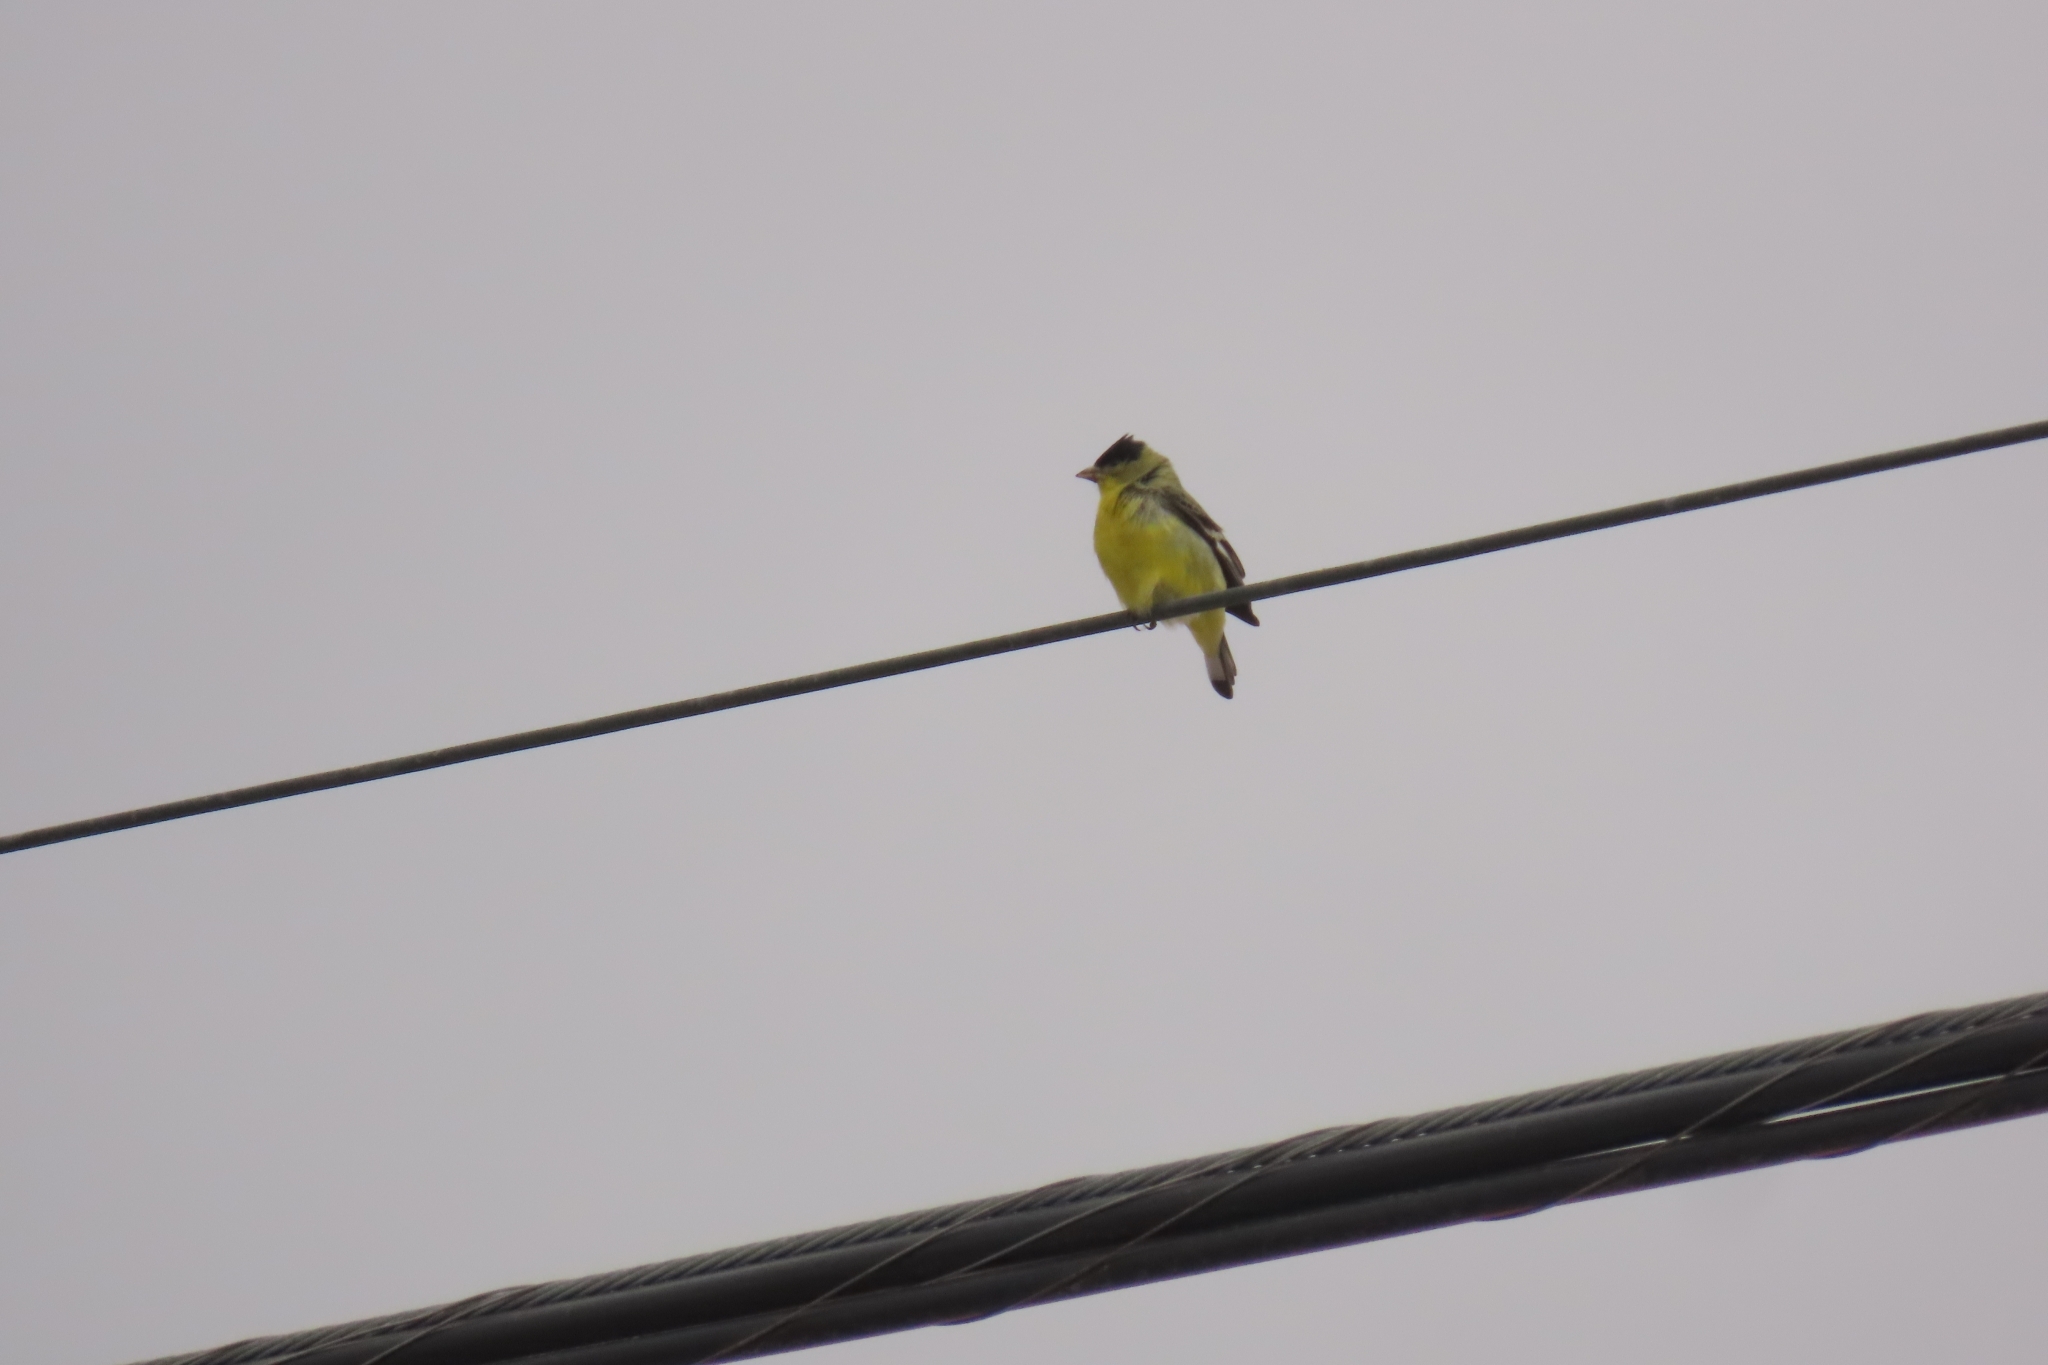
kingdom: Animalia
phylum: Chordata
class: Aves
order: Passeriformes
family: Fringillidae
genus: Spinus
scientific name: Spinus psaltria
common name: Lesser goldfinch
